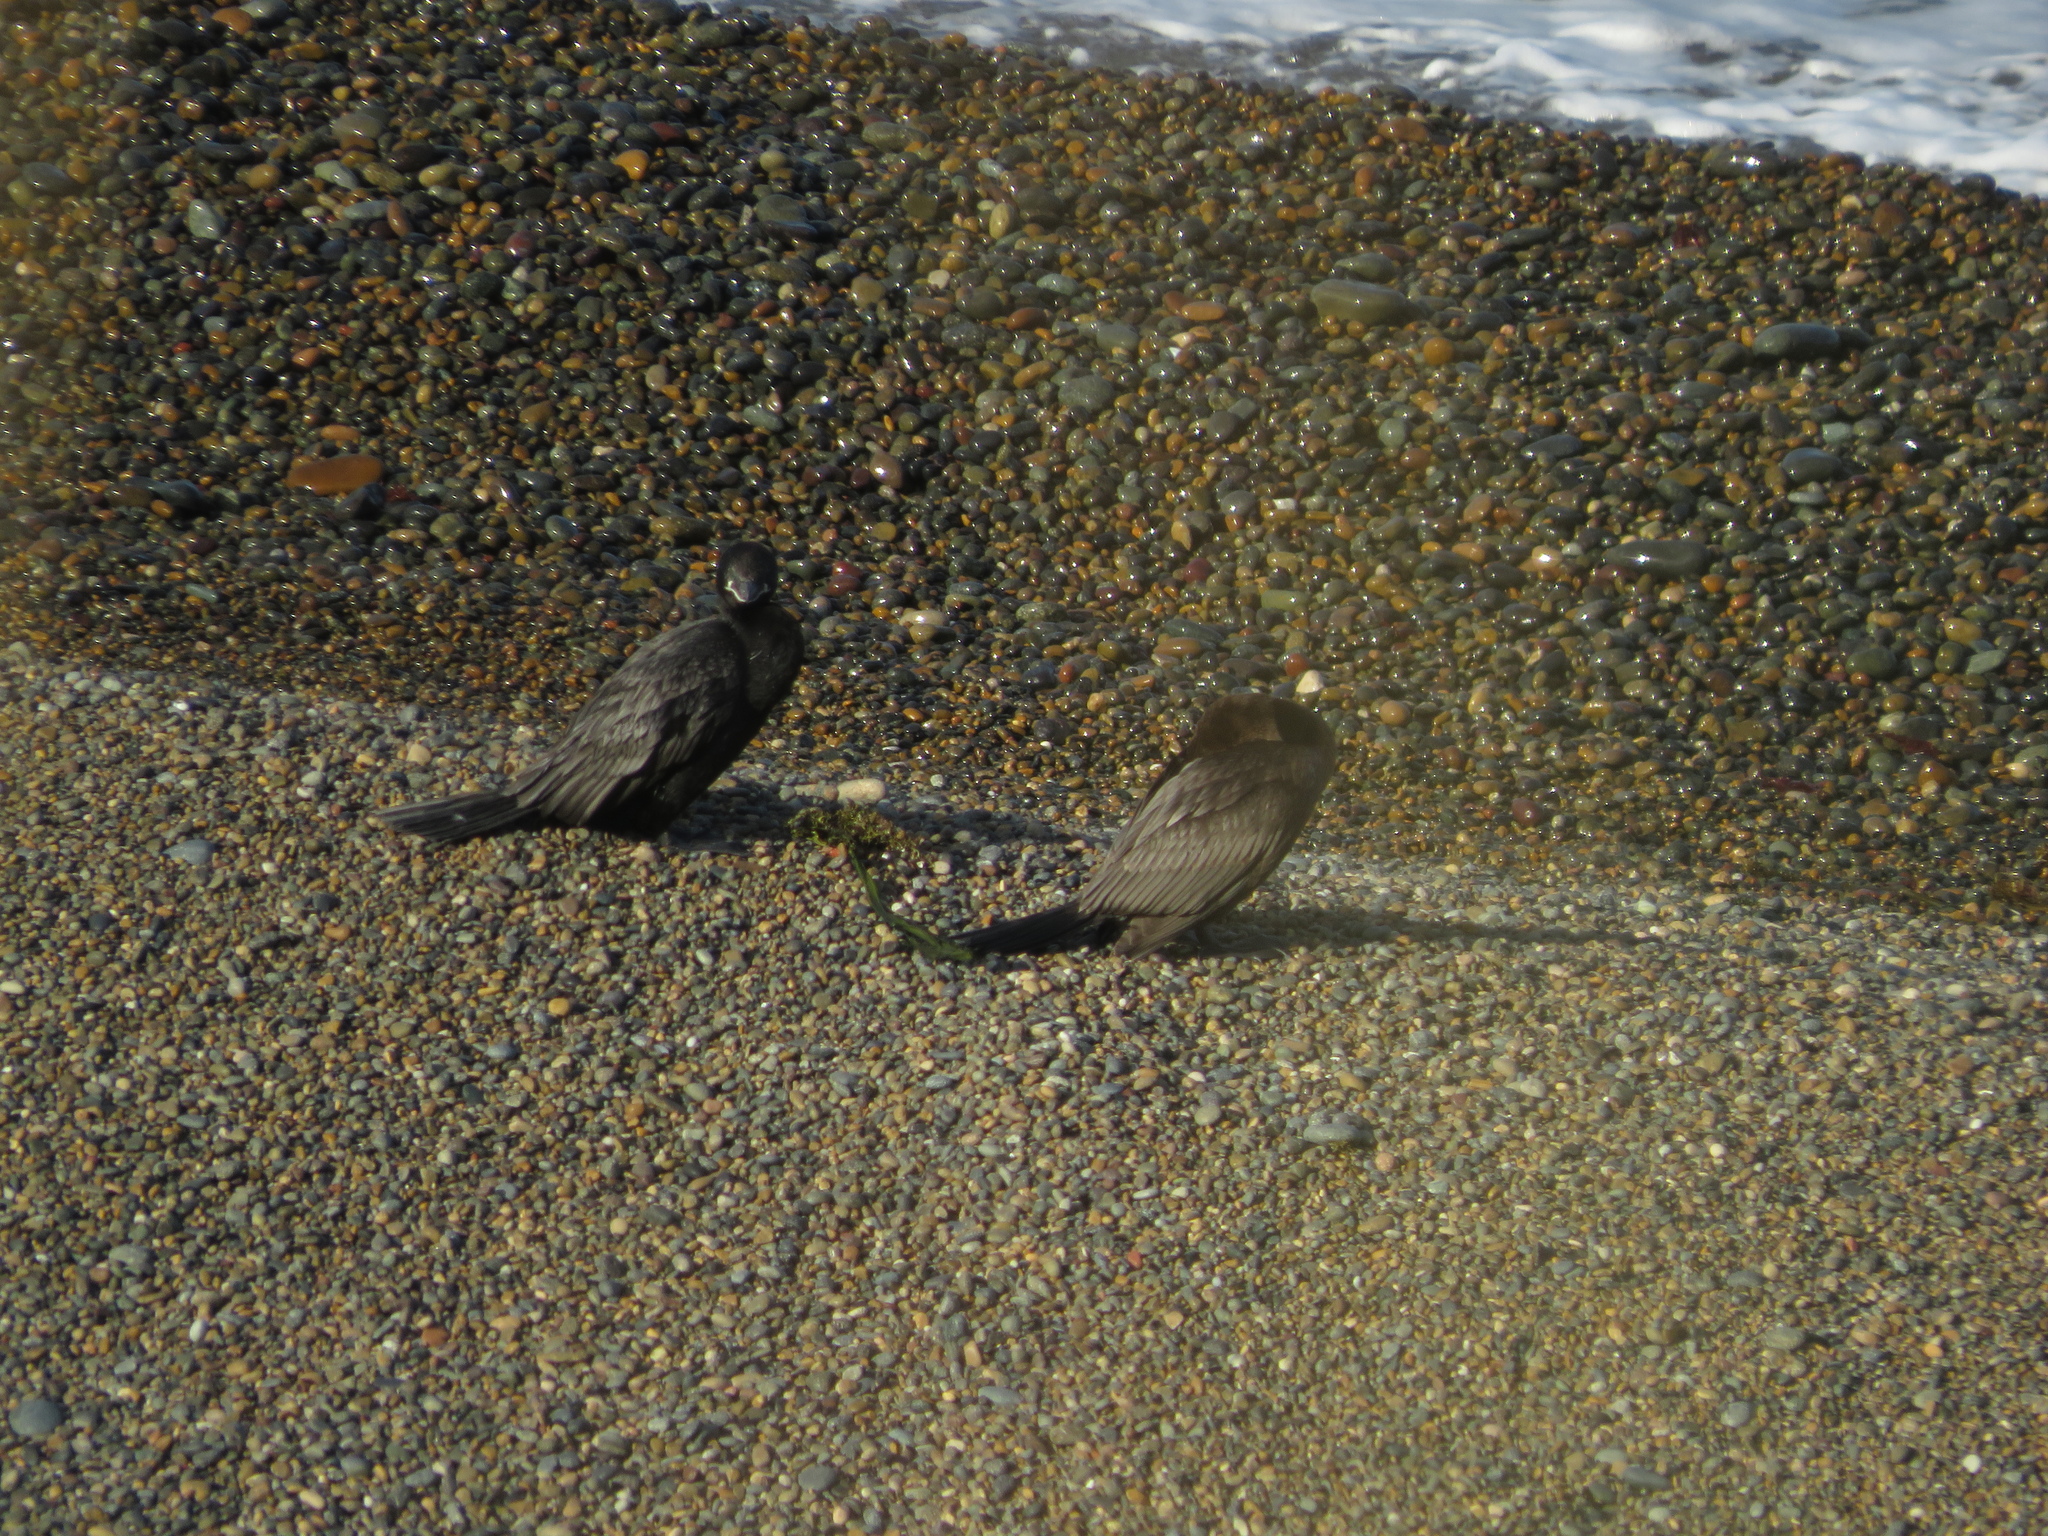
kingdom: Animalia
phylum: Chordata
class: Aves
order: Suliformes
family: Phalacrocoracidae
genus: Phalacrocorax
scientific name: Phalacrocorax brasilianus
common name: Neotropic cormorant
